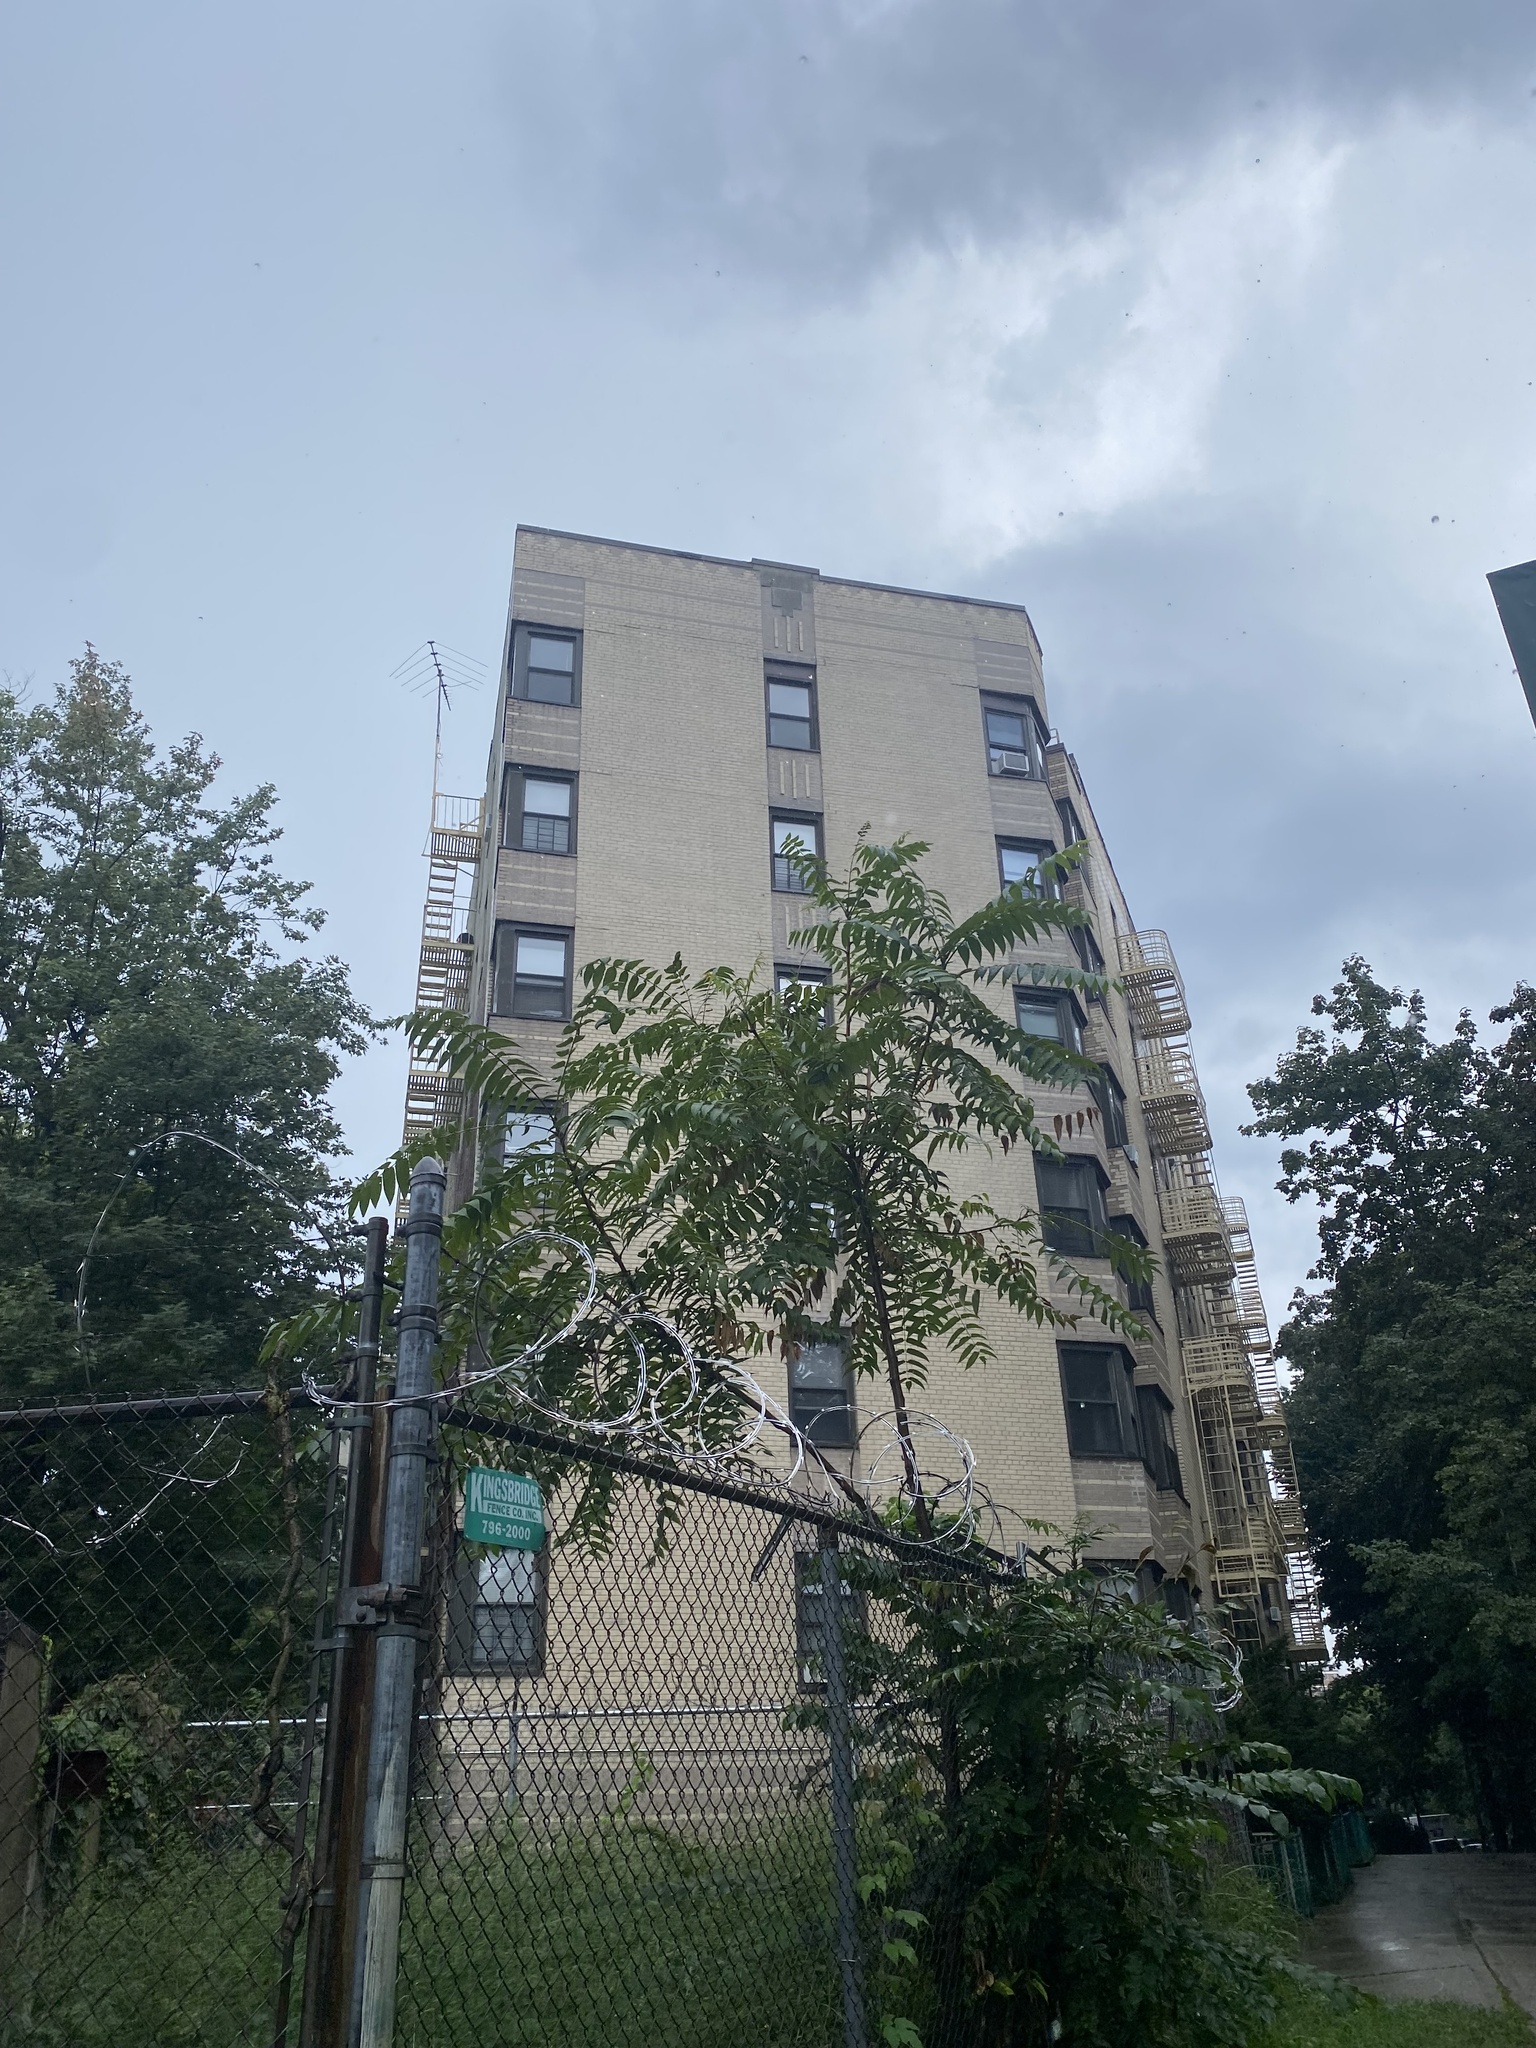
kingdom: Plantae
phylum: Tracheophyta
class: Magnoliopsida
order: Sapindales
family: Simaroubaceae
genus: Ailanthus
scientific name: Ailanthus altissima
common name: Tree-of-heaven
